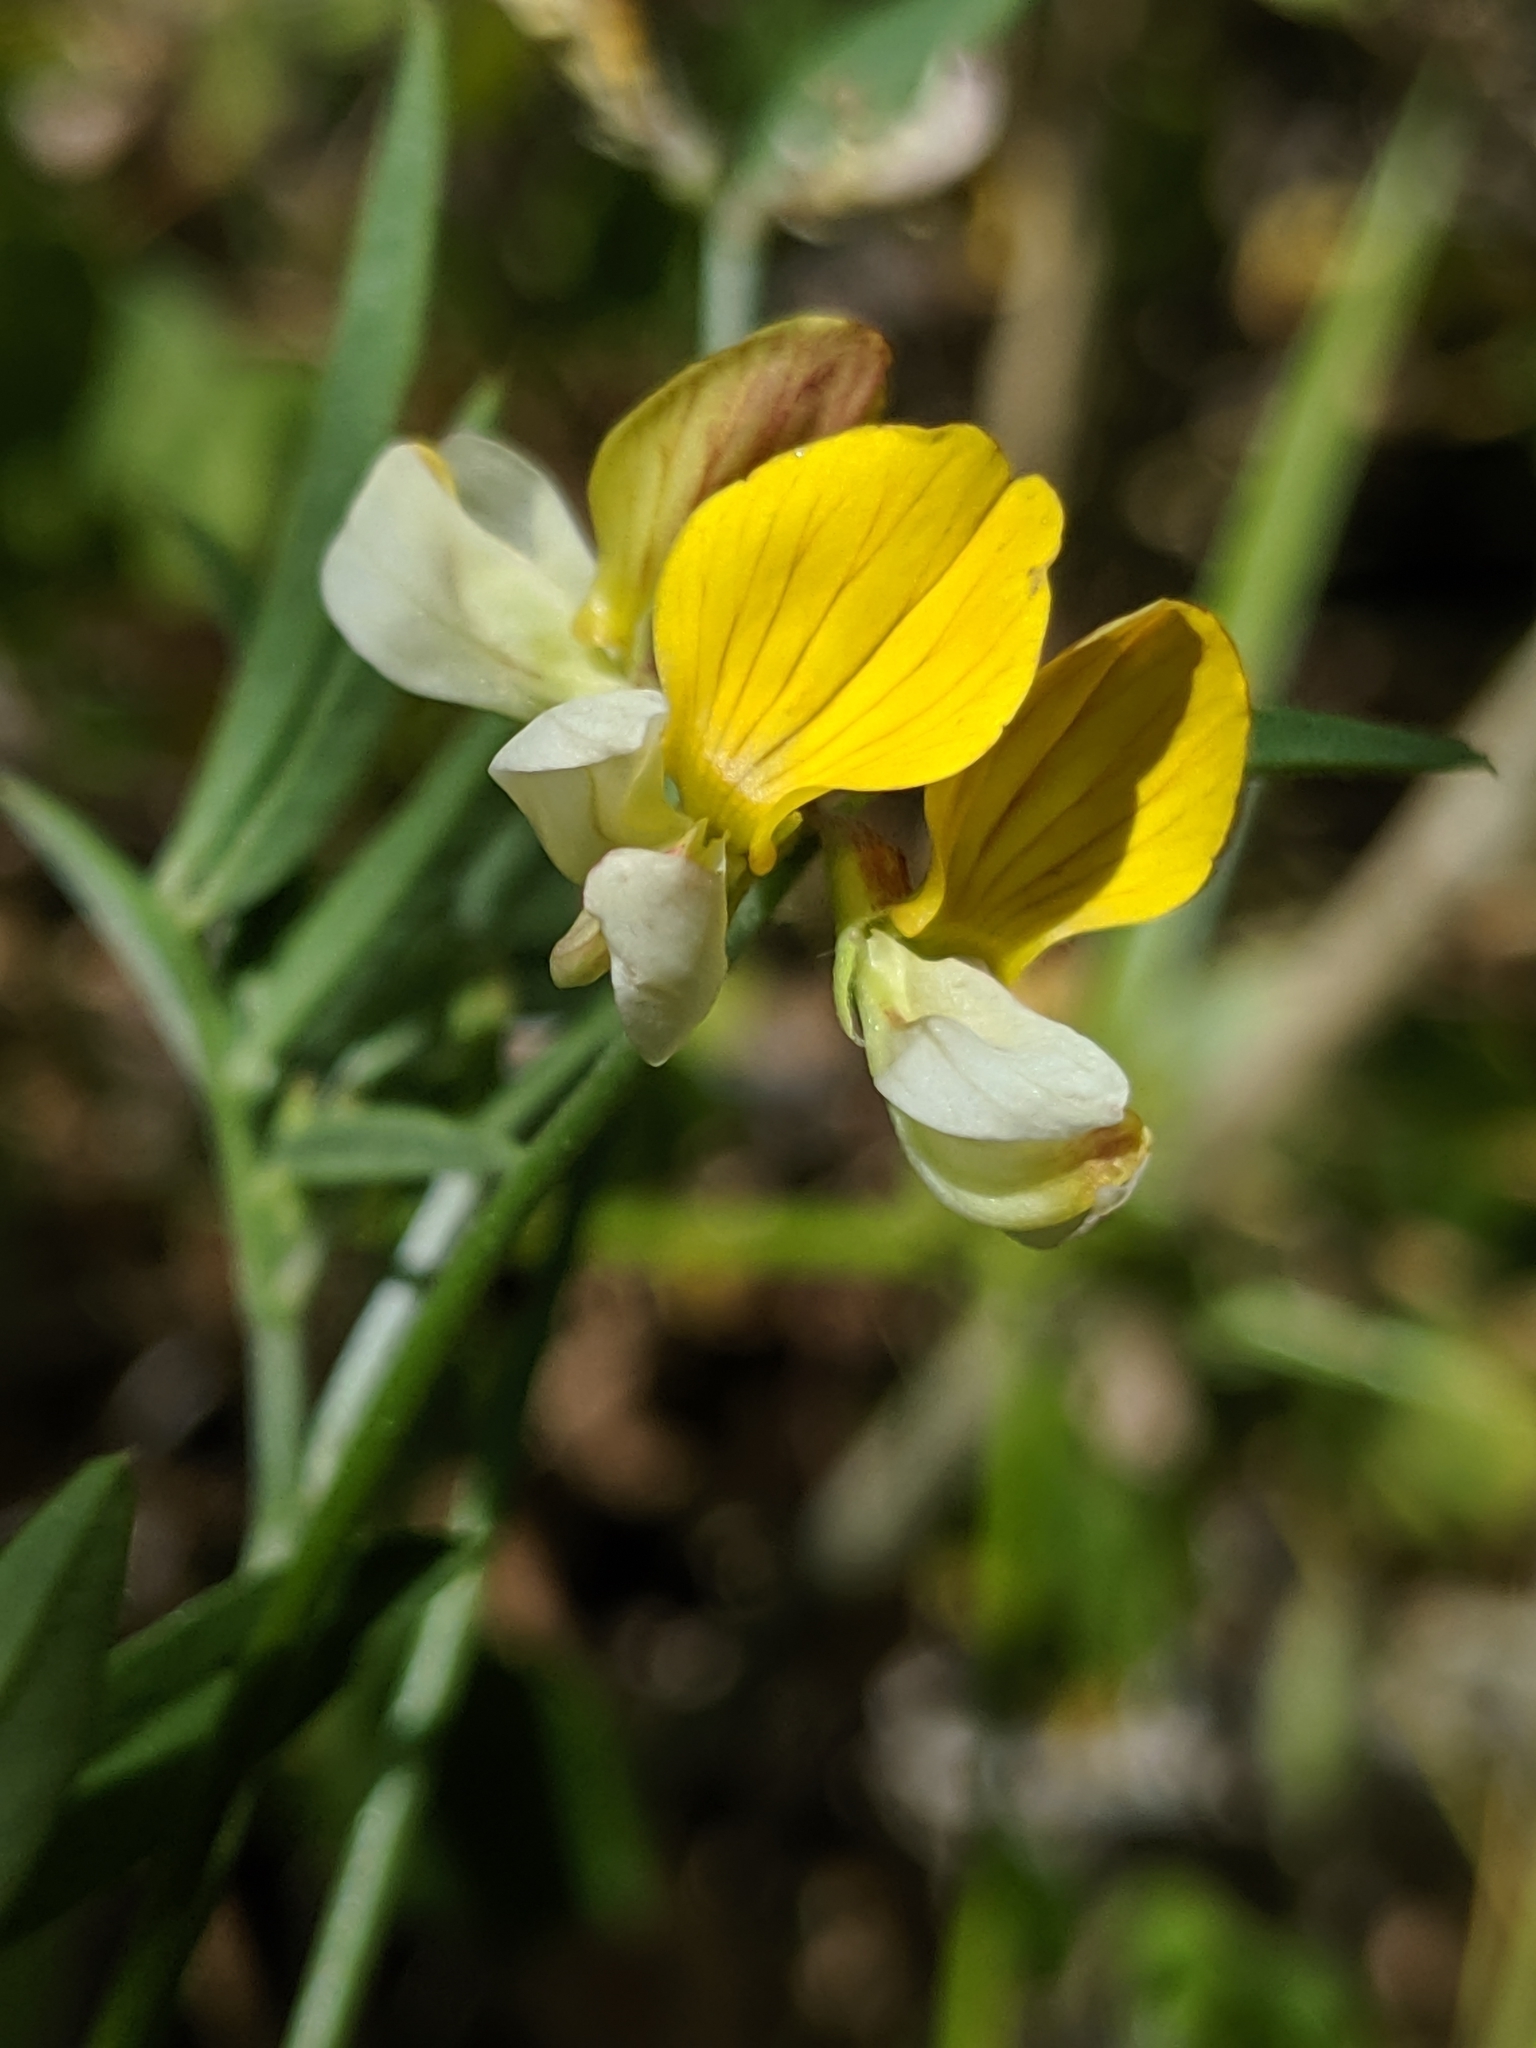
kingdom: Plantae
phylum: Tracheophyta
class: Magnoliopsida
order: Fabales
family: Fabaceae
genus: Hosackia
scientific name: Hosackia oblongifolia
